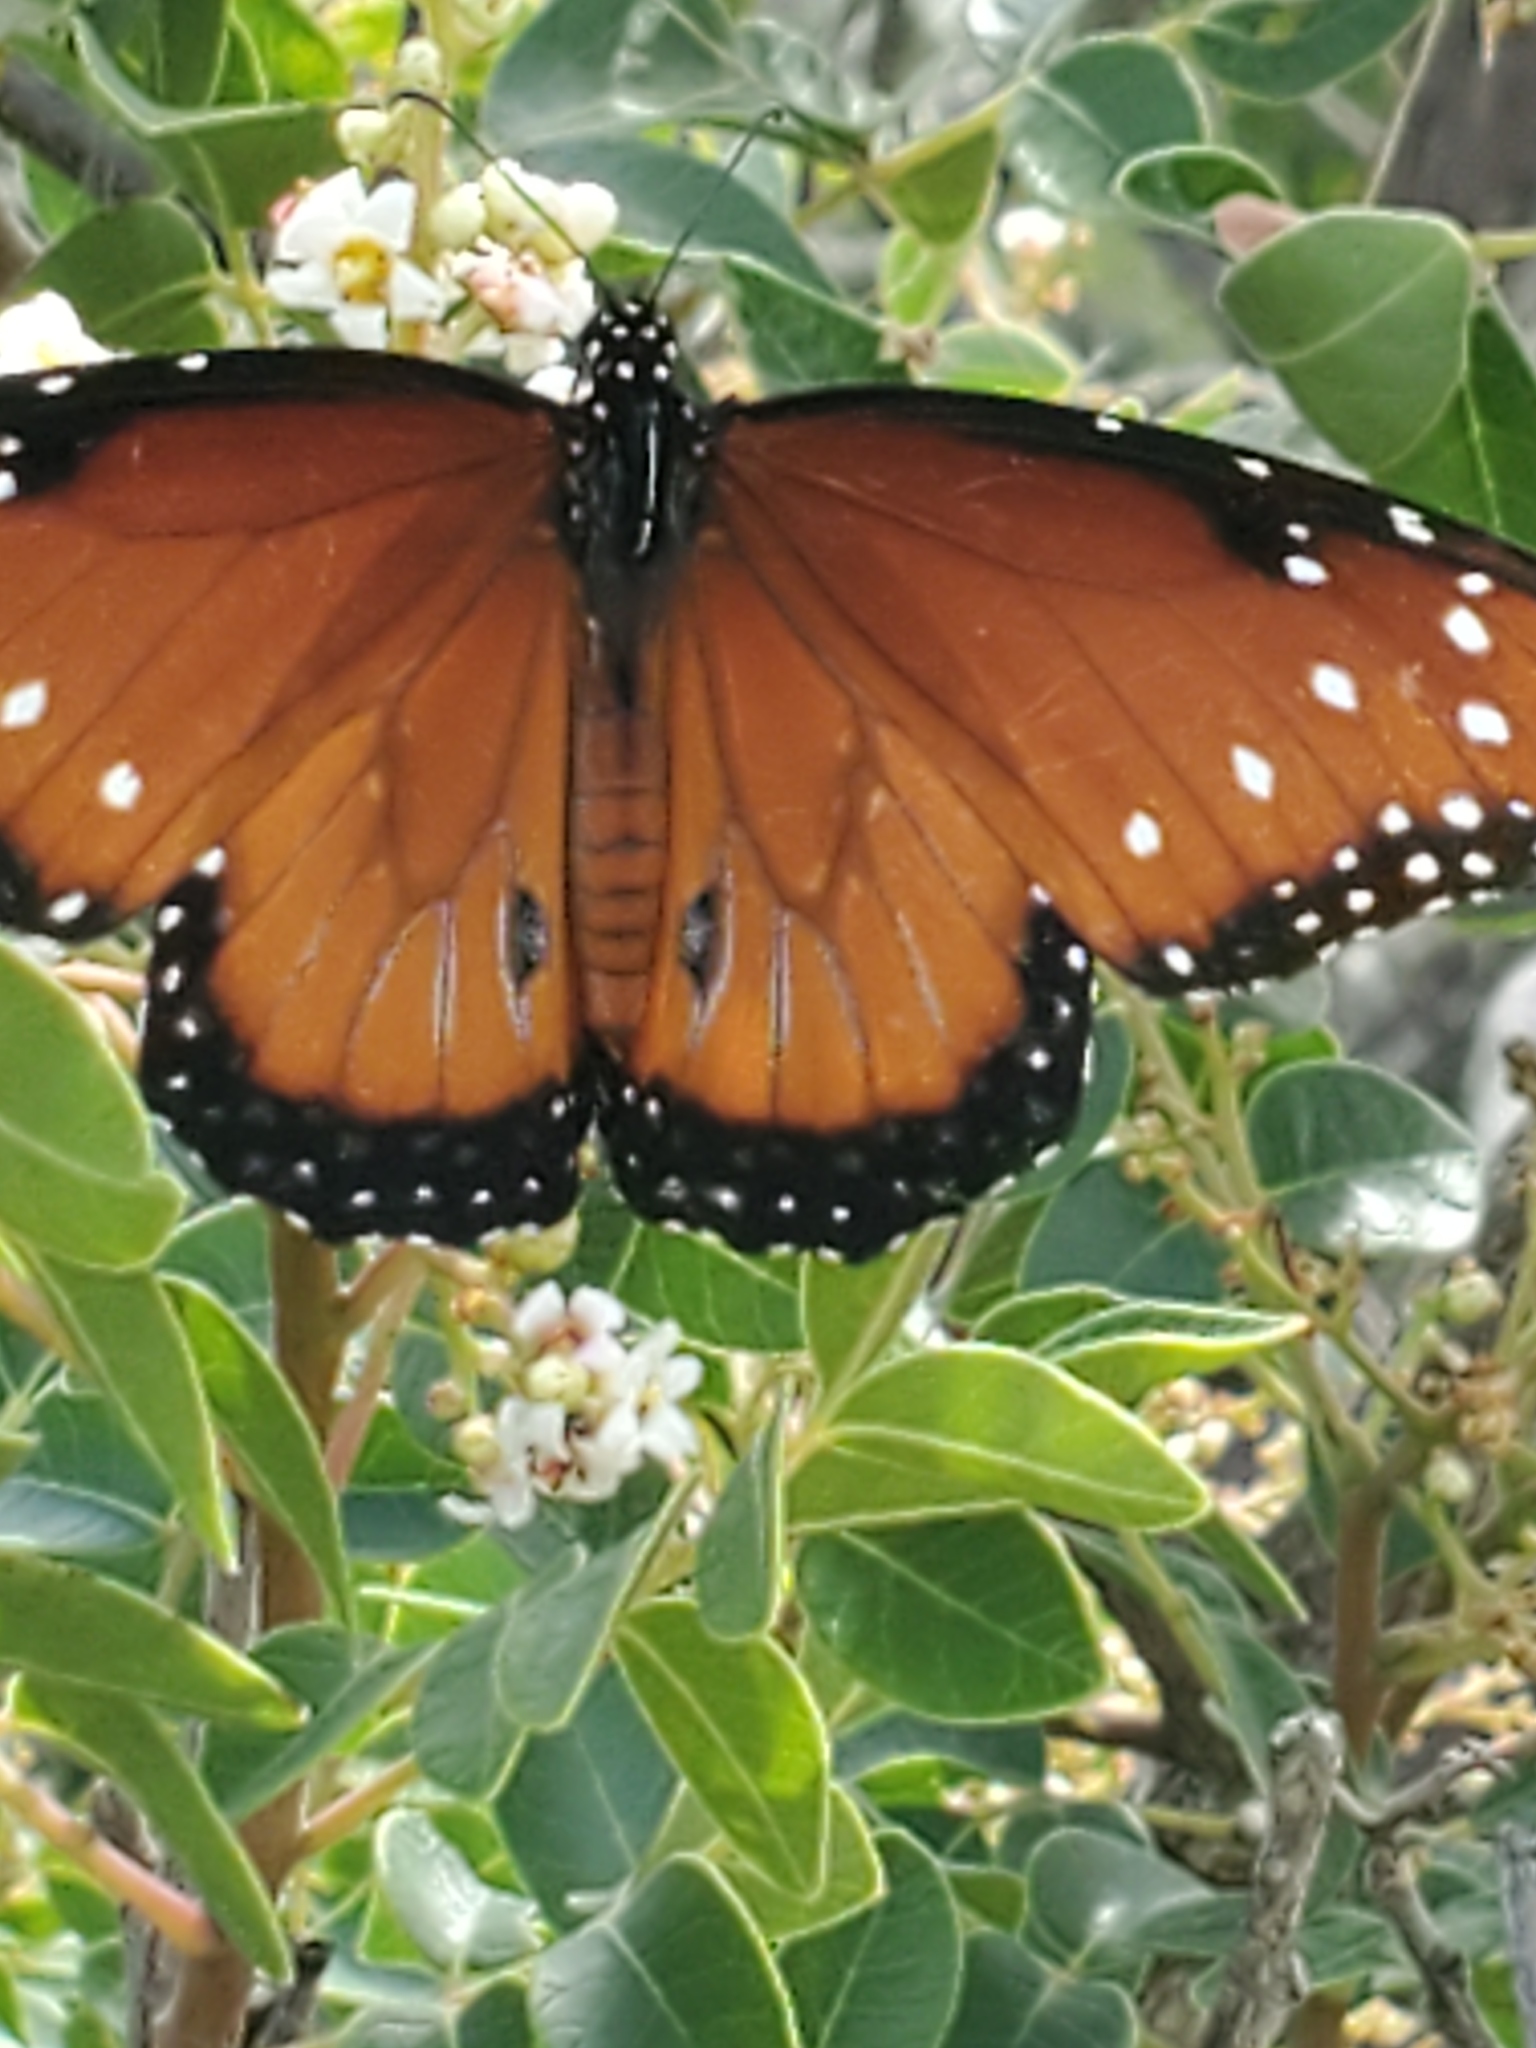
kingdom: Animalia
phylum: Arthropoda
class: Insecta
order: Lepidoptera
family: Nymphalidae
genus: Danaus
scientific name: Danaus gilippus
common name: Queen
